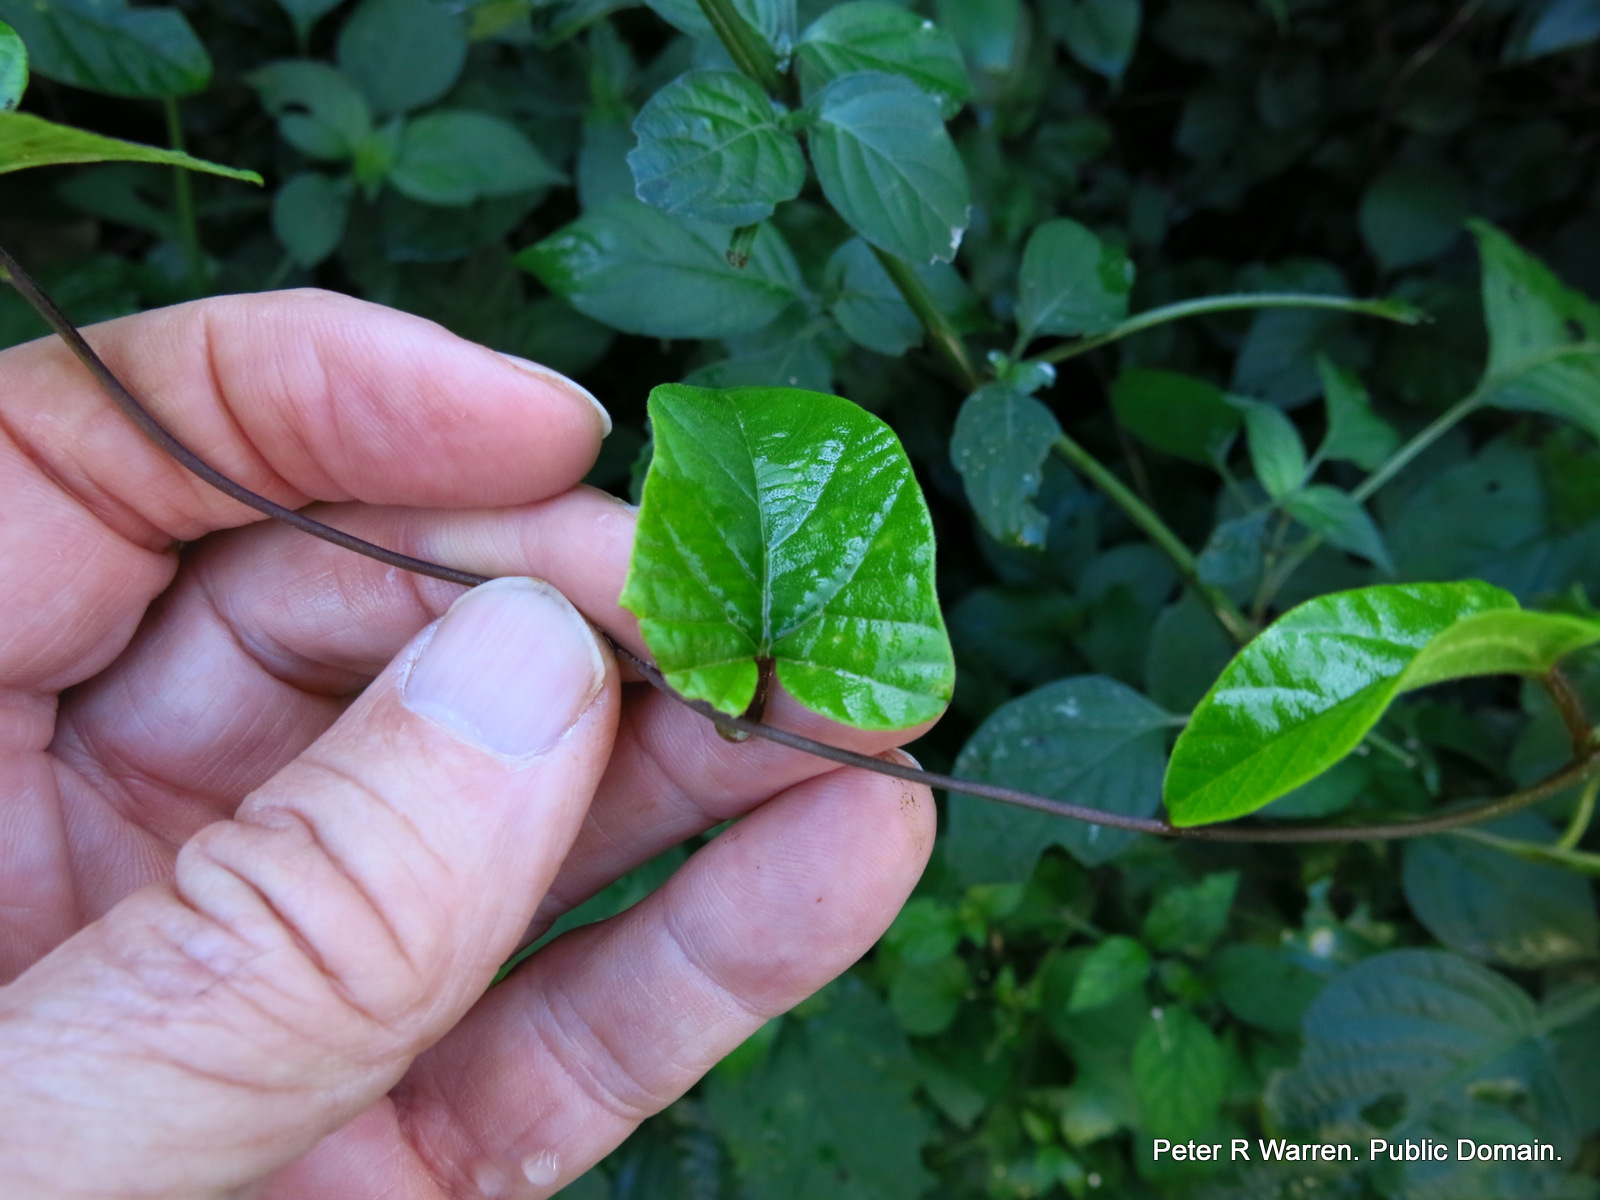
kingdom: Plantae
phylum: Tracheophyta
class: Magnoliopsida
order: Solanales
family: Convolvulaceae
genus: Hewittia
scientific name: Hewittia malabarica
